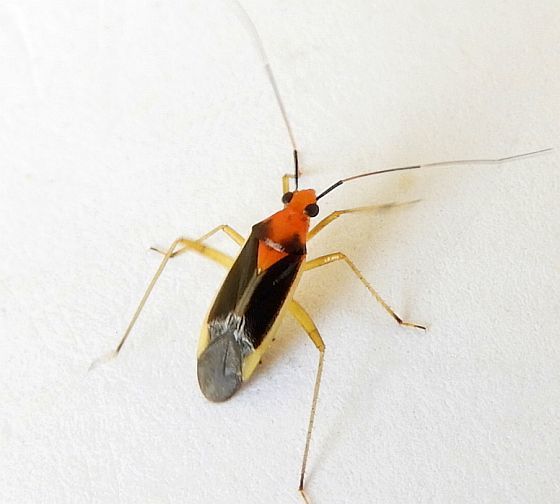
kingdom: Animalia
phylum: Arthropoda
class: Insecta
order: Hemiptera
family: Miridae
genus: Ganocapsus
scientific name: Ganocapsus filiformis
